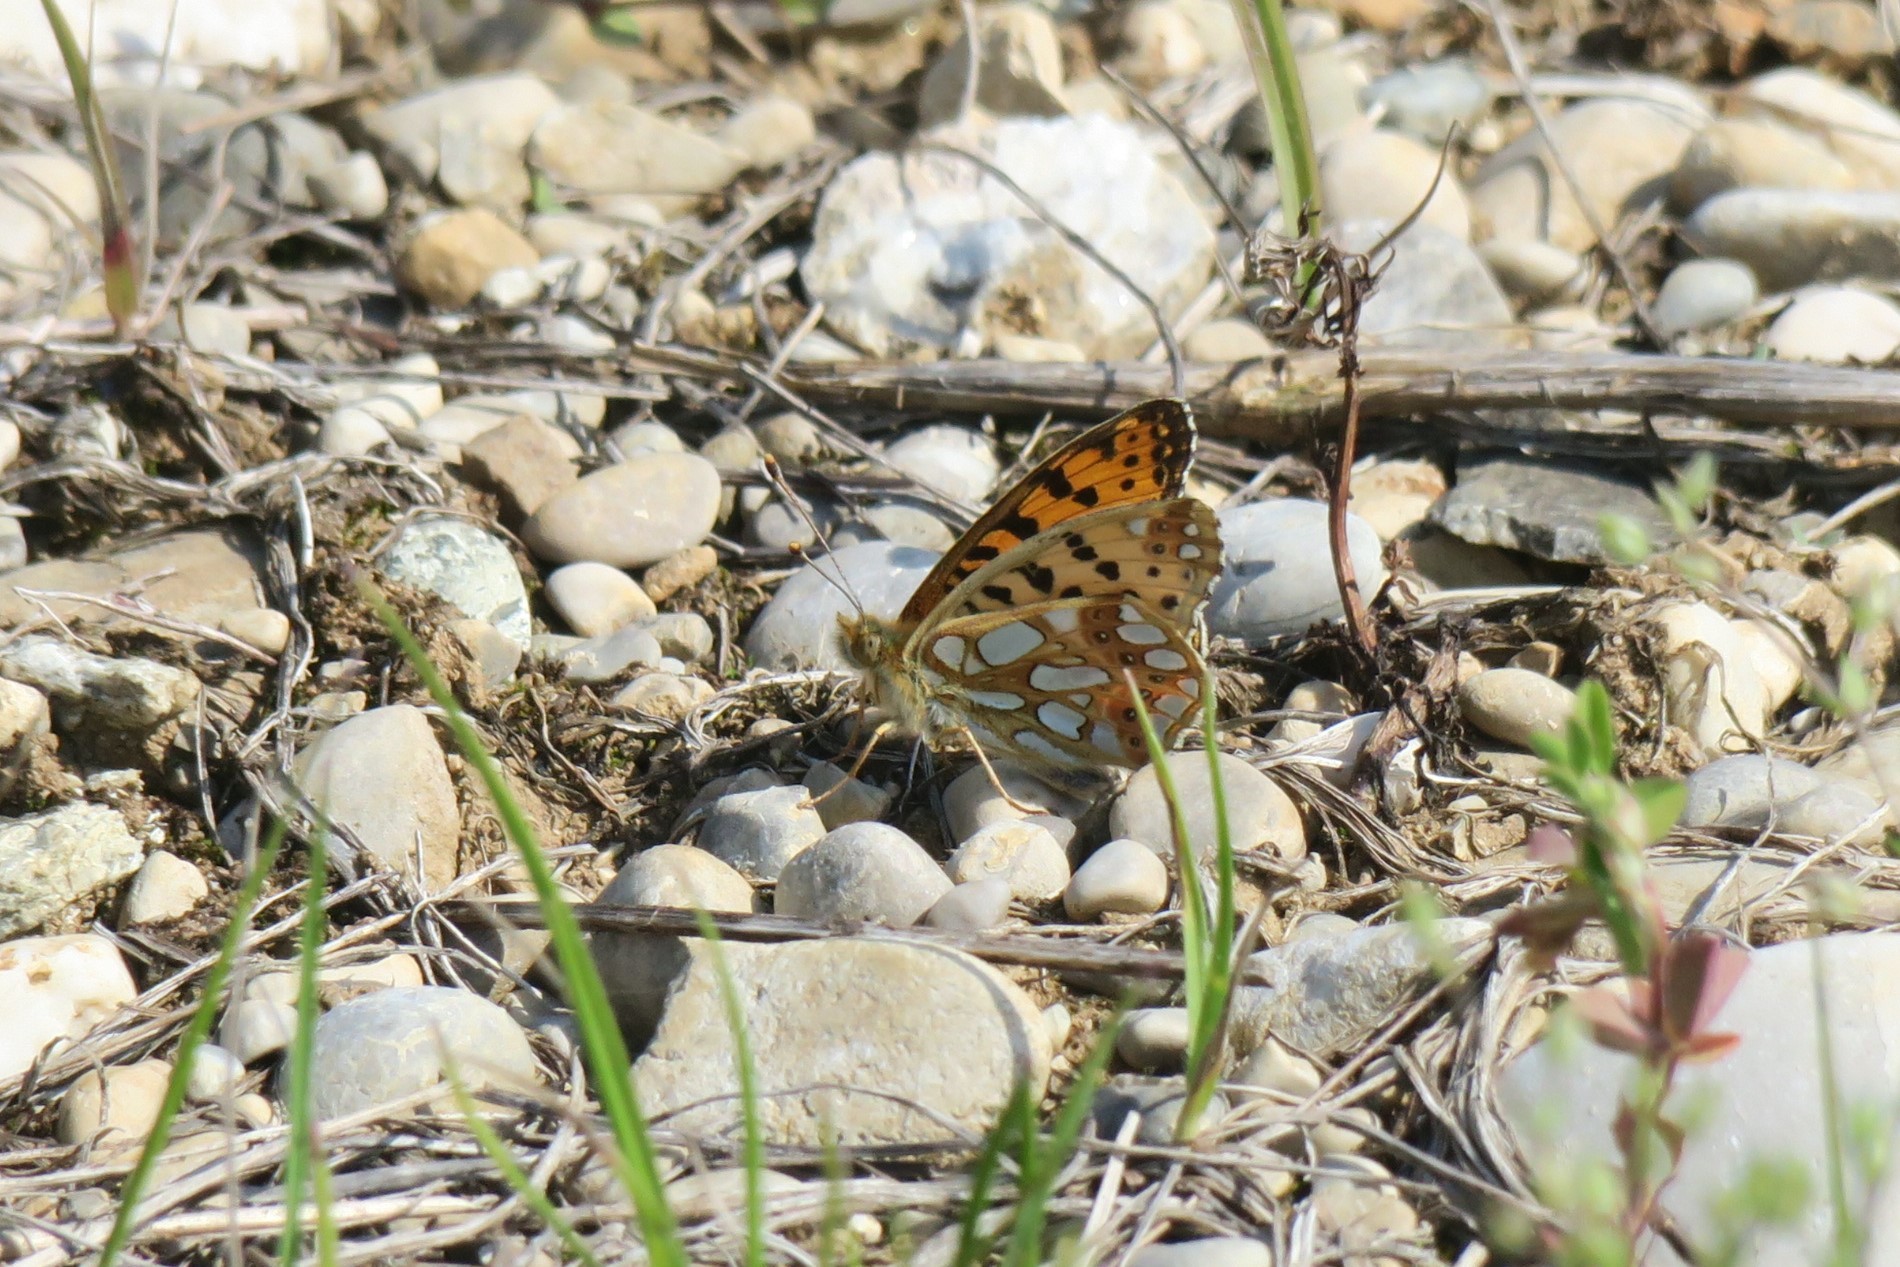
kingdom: Animalia
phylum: Arthropoda
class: Insecta
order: Lepidoptera
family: Nymphalidae
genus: Issoria
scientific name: Issoria lathonia
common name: Queen of spain fritillary
